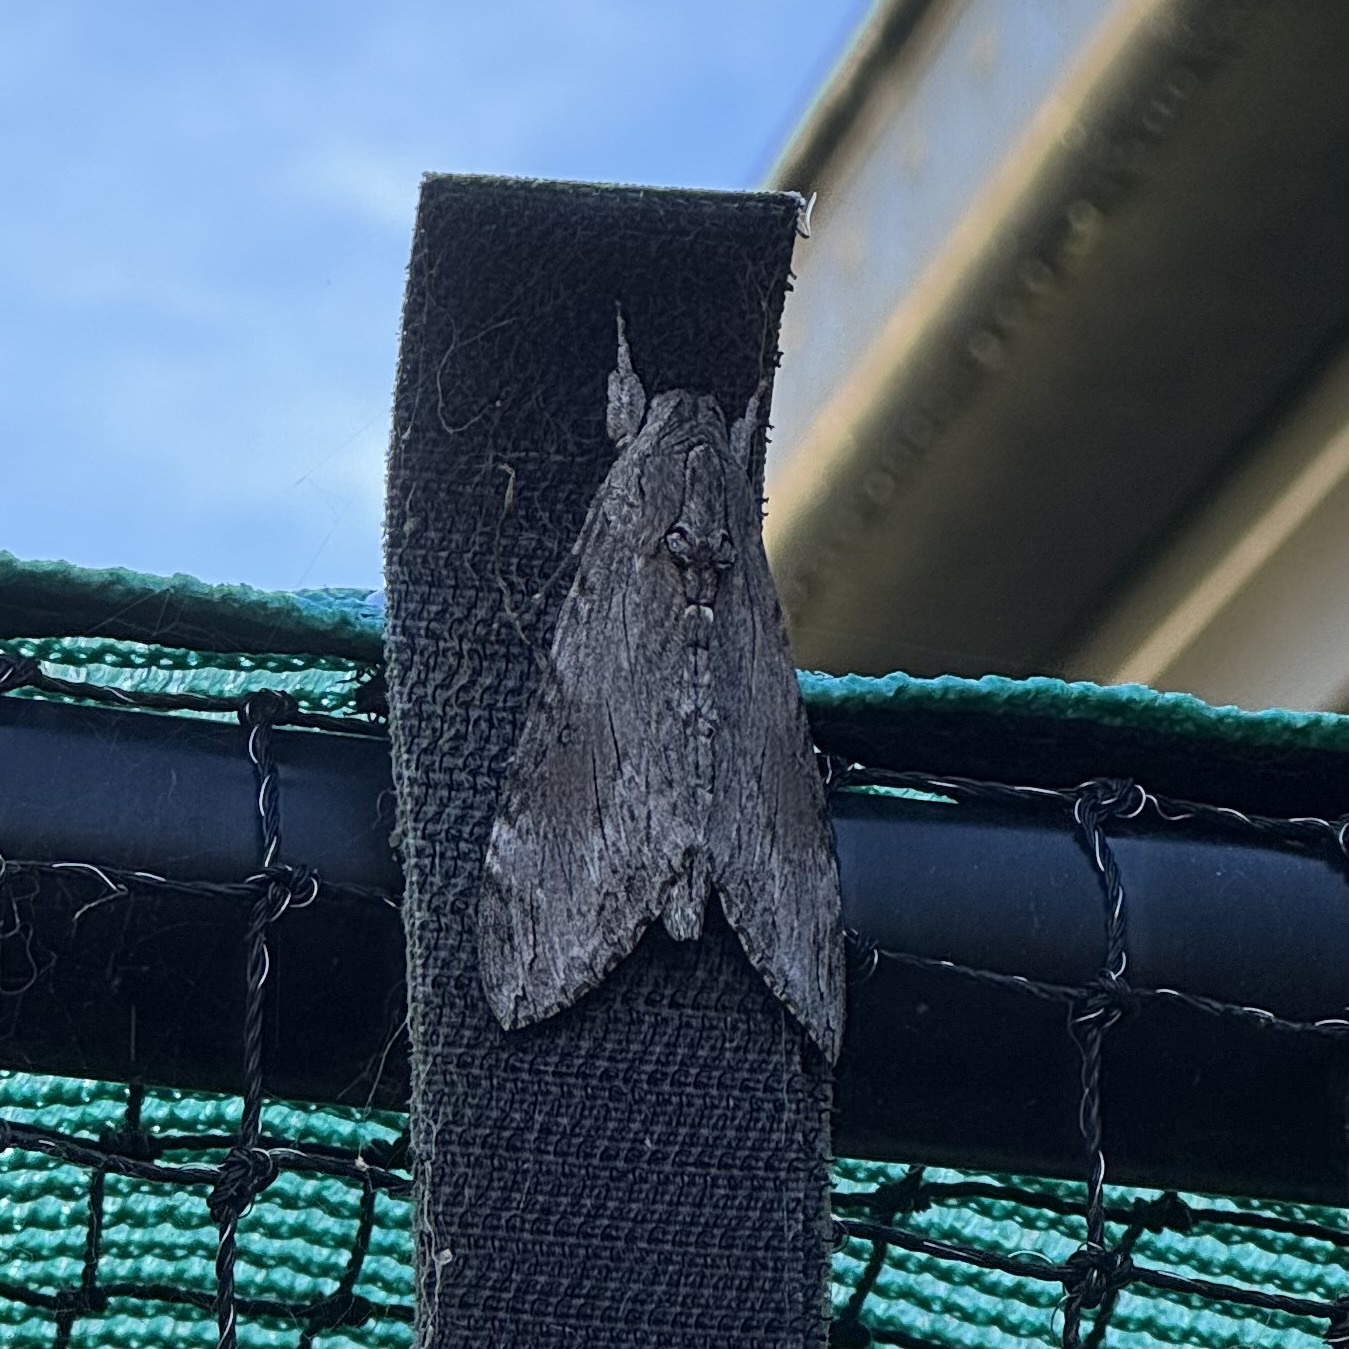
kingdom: Animalia
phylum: Arthropoda
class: Insecta
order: Lepidoptera
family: Sphingidae
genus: Agrius
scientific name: Agrius convolvuli
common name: Convolvulus hawkmoth
